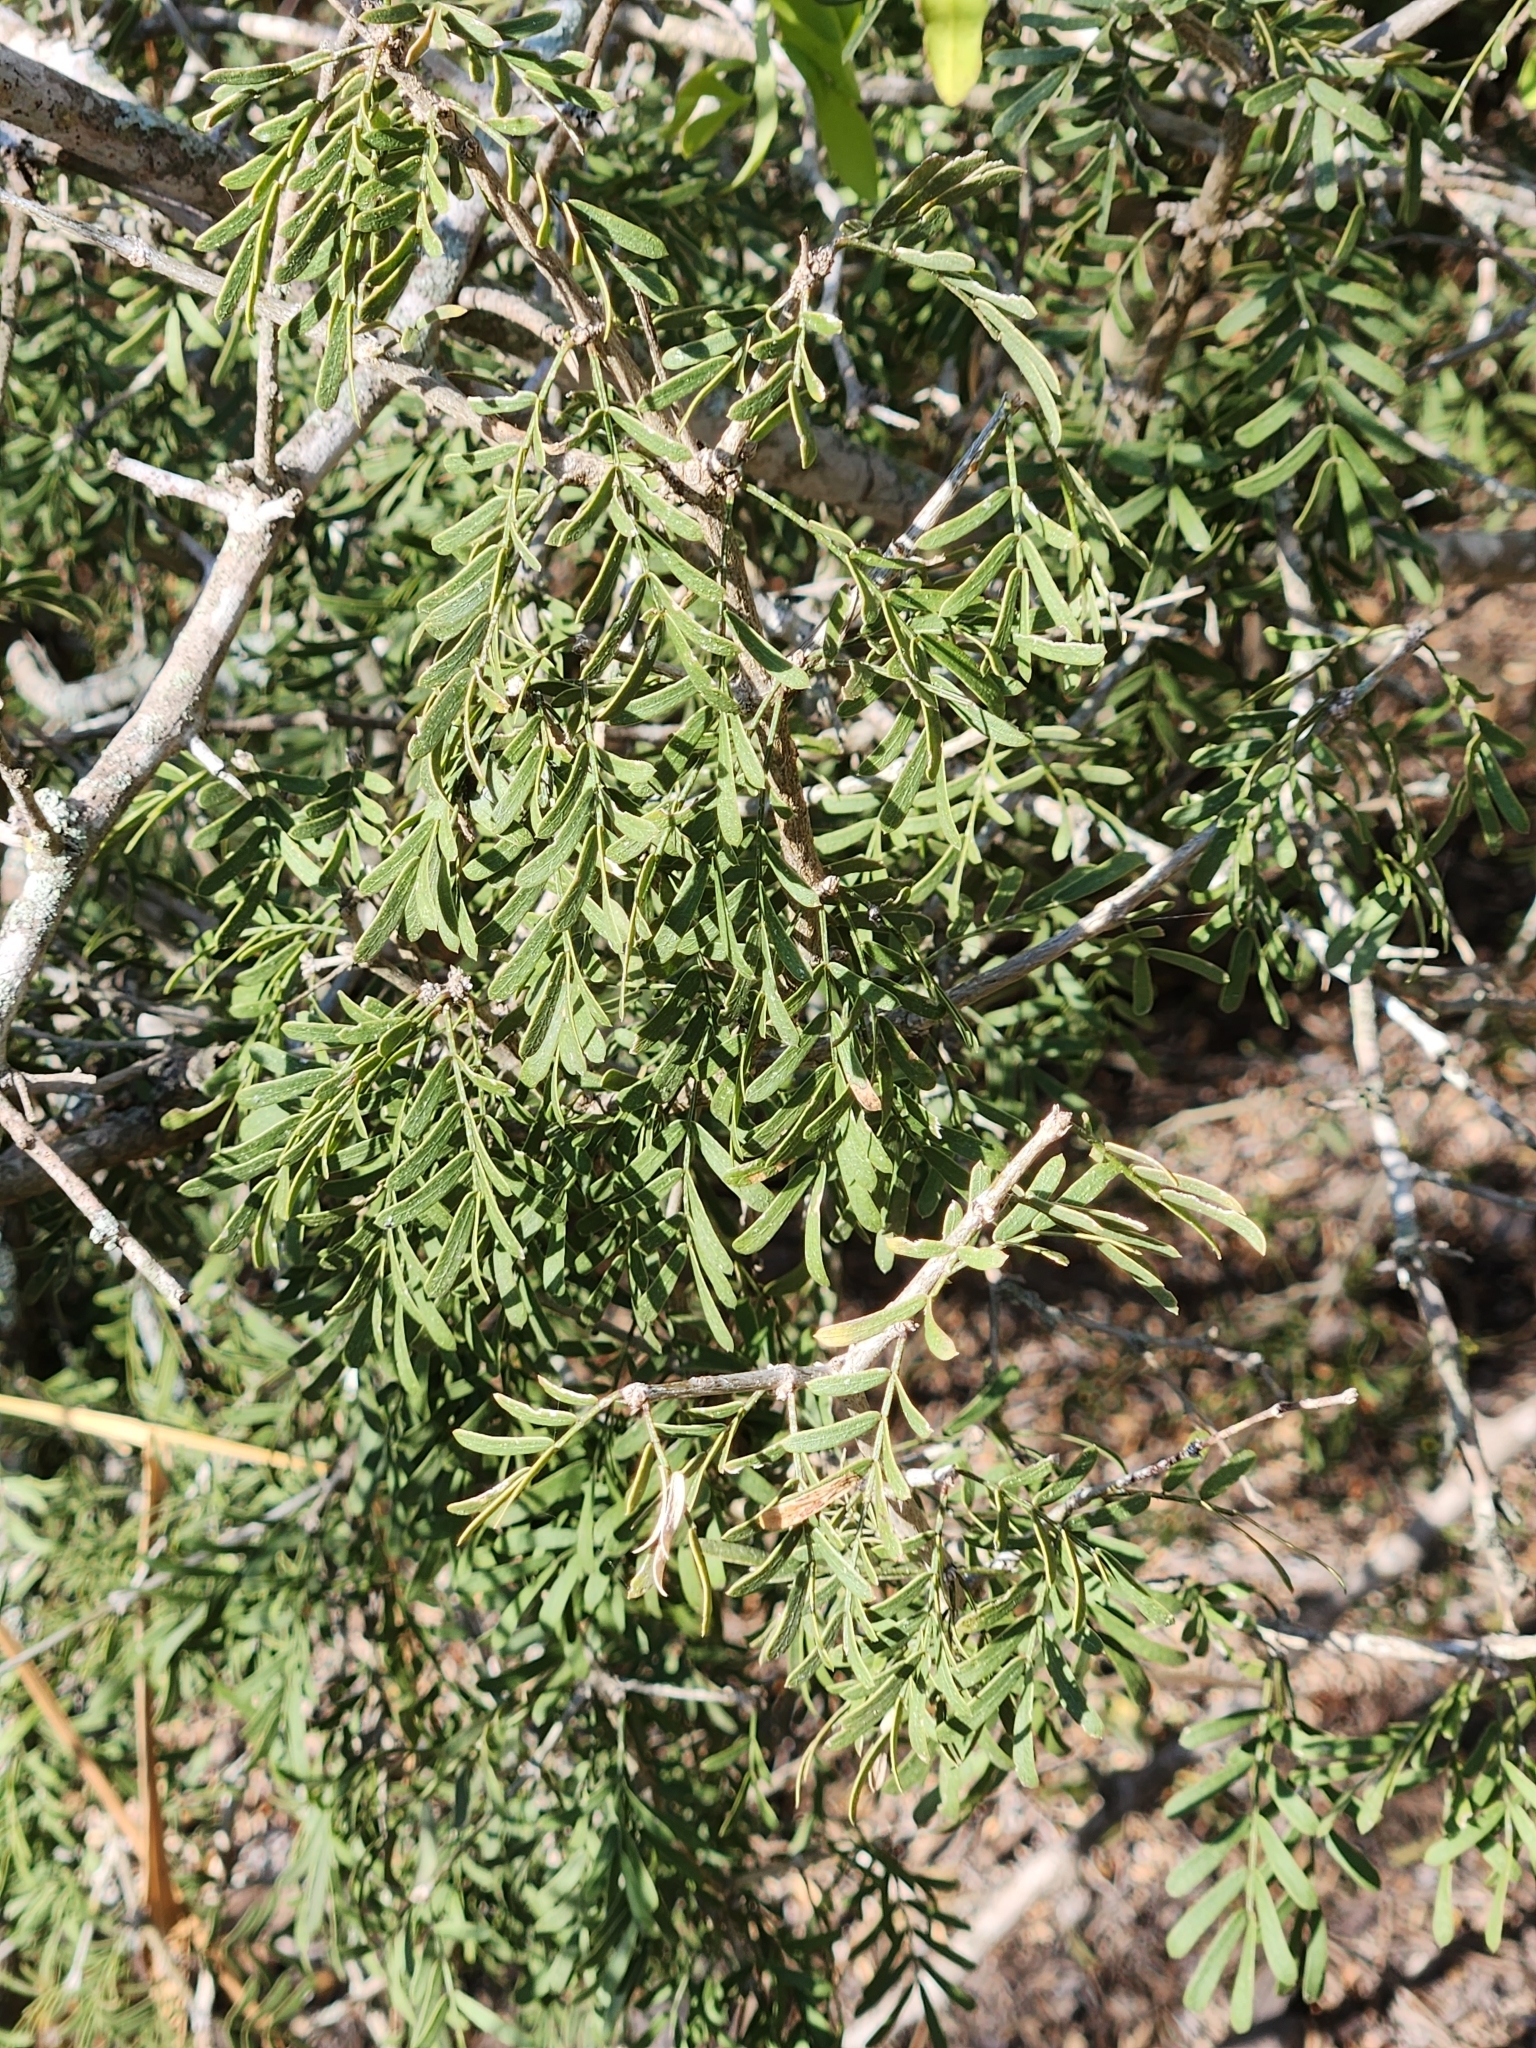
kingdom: Plantae
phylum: Tracheophyta
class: Magnoliopsida
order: Zygophyllales
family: Zygophyllaceae
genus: Porlieria
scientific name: Porlieria angustifolia
